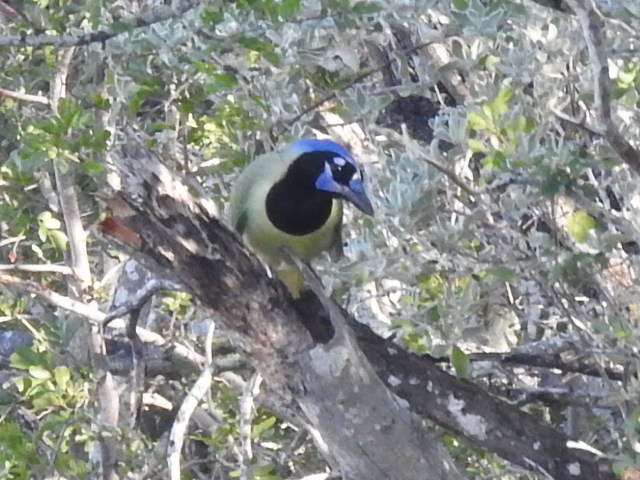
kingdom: Animalia
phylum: Chordata
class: Aves
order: Passeriformes
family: Corvidae
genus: Cyanocorax
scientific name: Cyanocorax yncas
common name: Green jay
